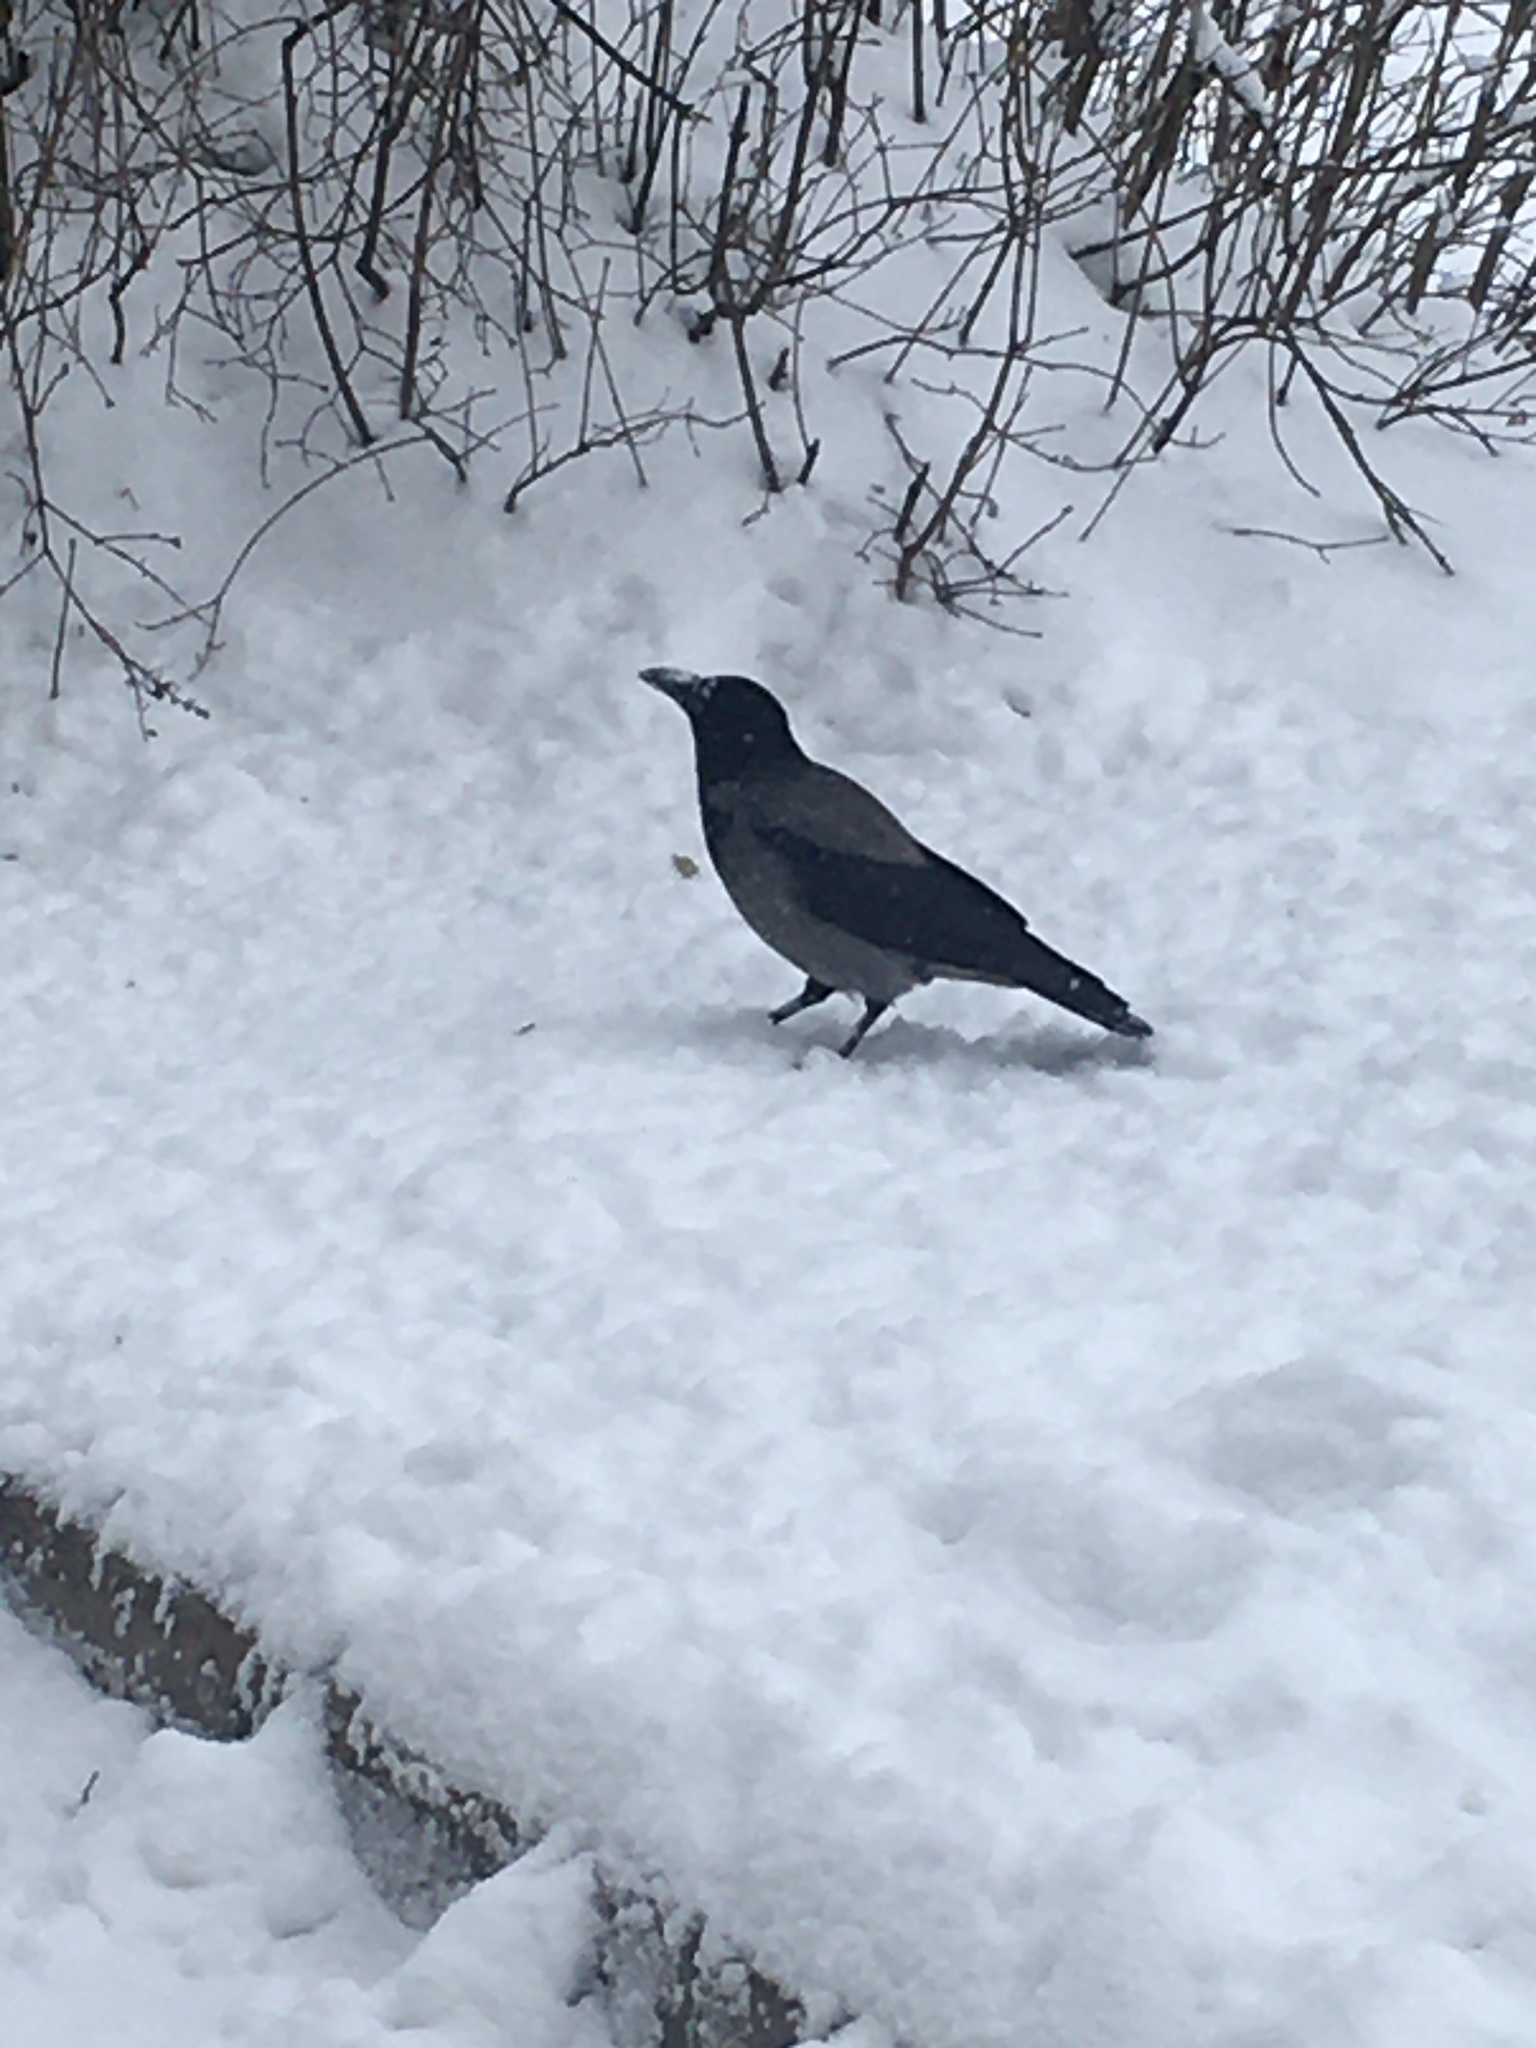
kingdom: Animalia
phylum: Chordata
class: Aves
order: Passeriformes
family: Corvidae
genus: Corvus
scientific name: Corvus cornix
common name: Hooded crow
